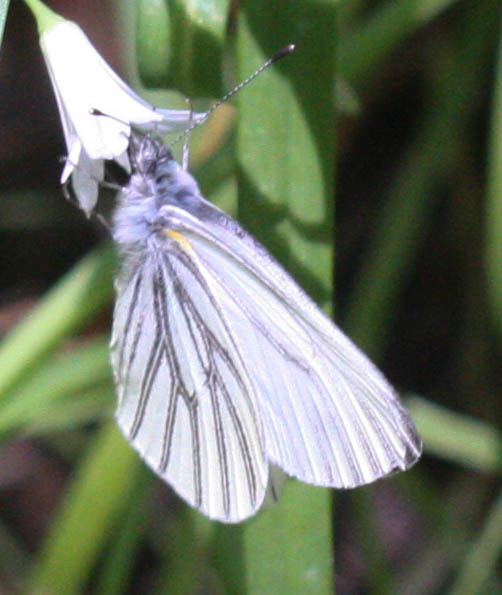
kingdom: Animalia
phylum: Arthropoda
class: Insecta
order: Lepidoptera
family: Pieridae
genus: Pieris
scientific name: Pieris marginalis
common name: Margined white
